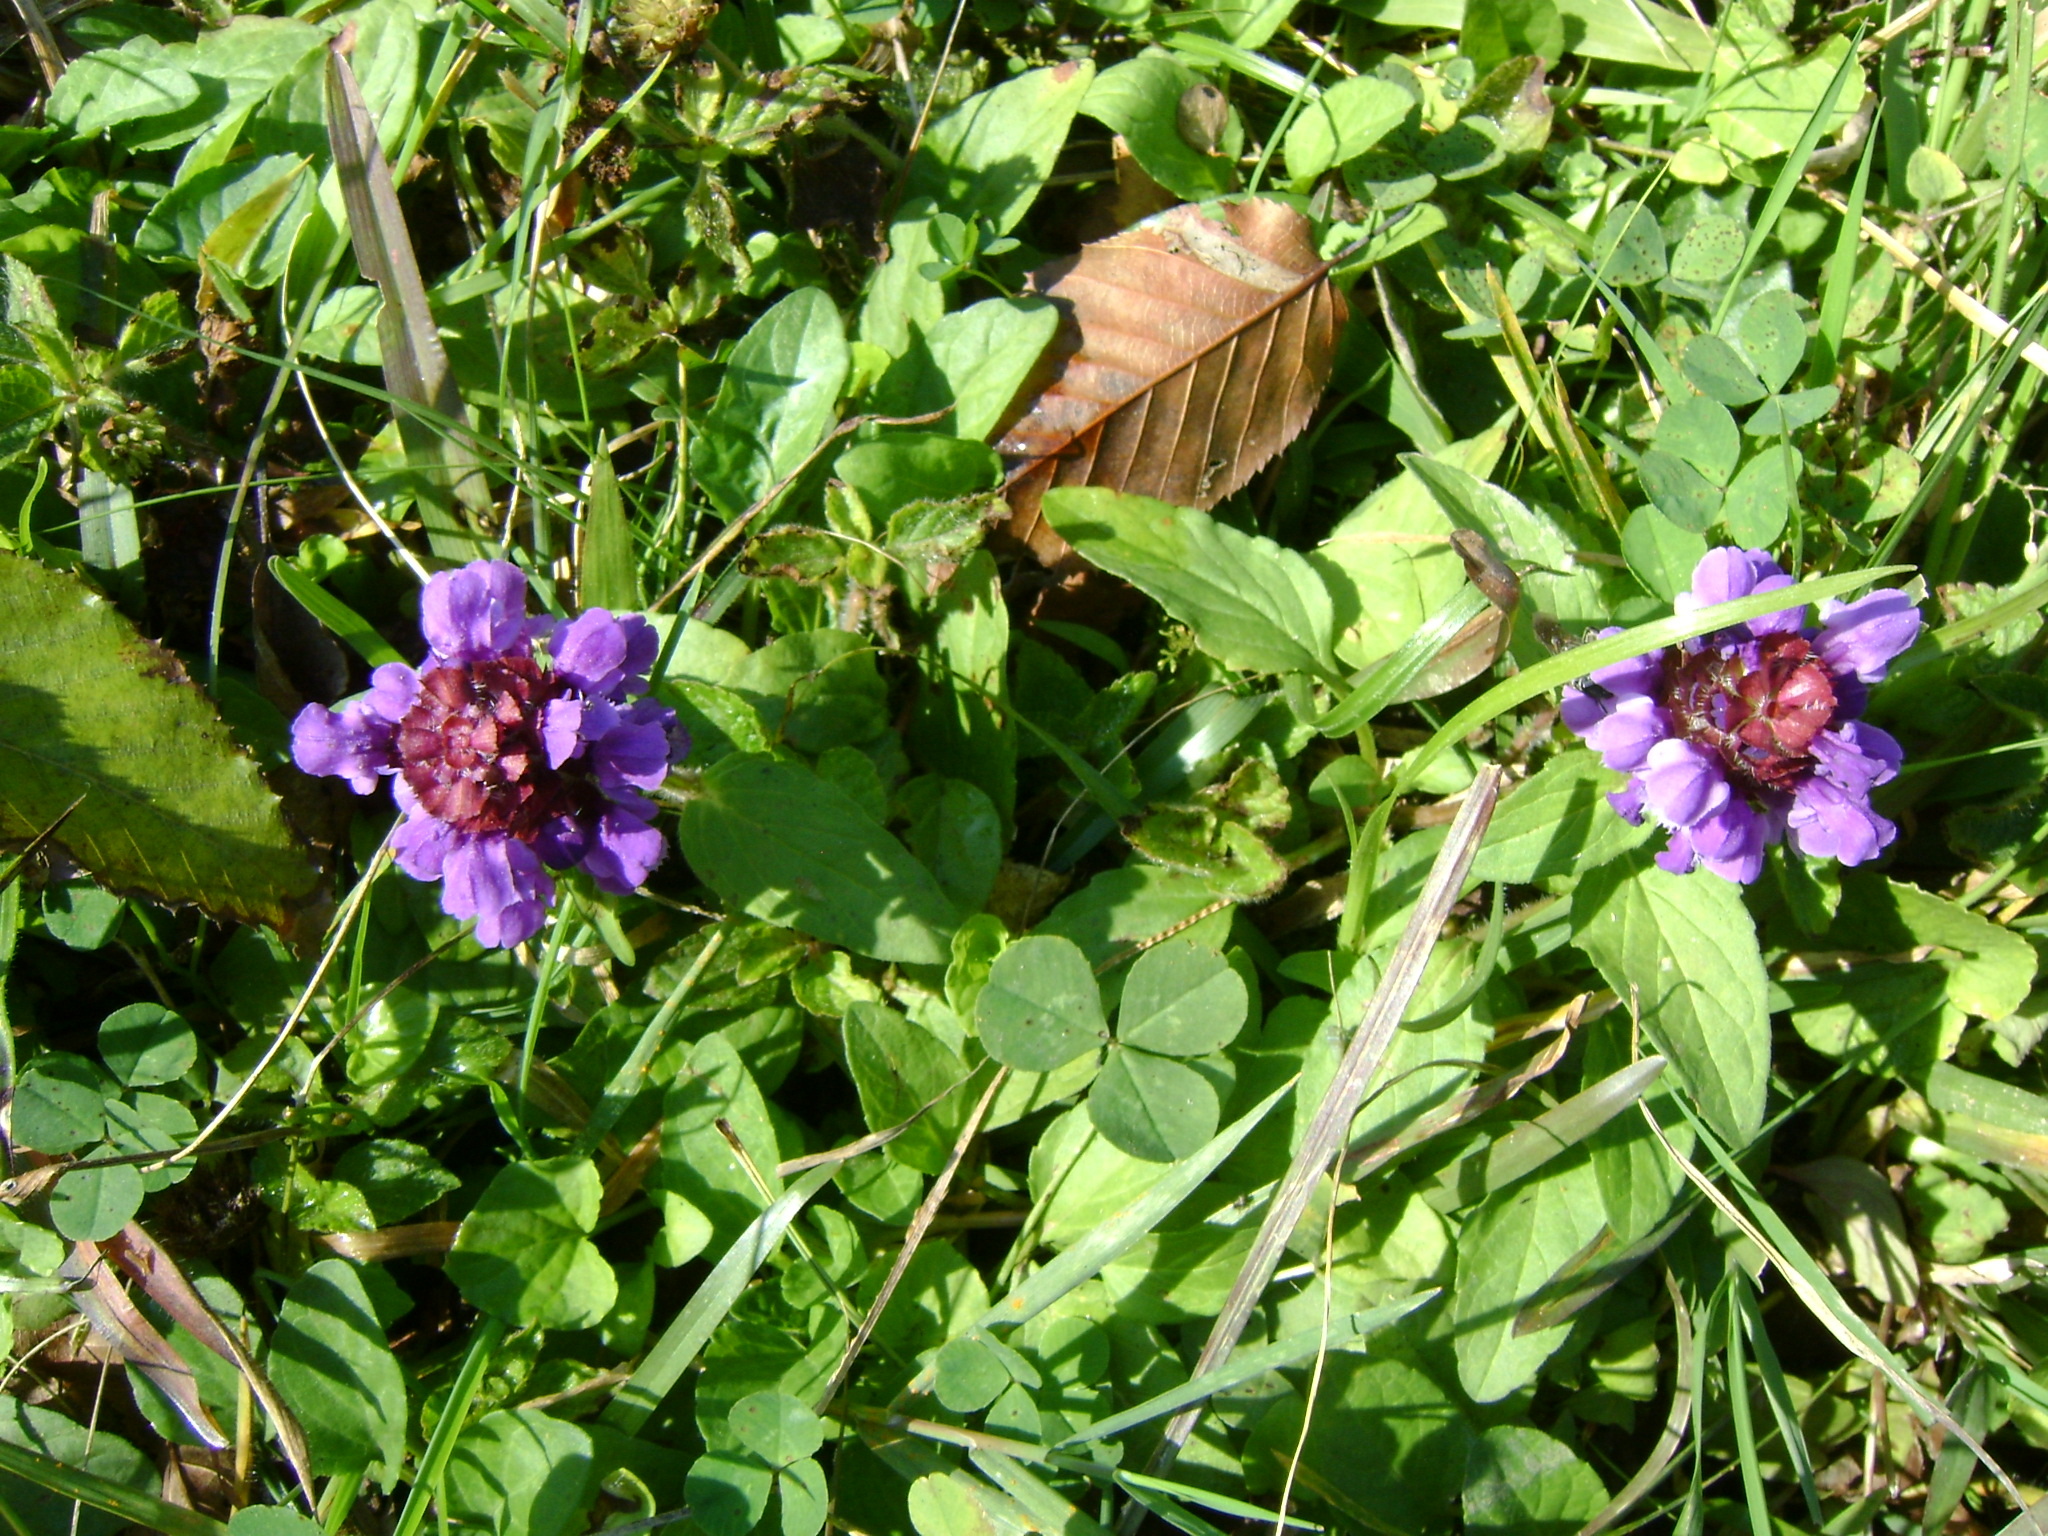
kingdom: Plantae
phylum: Tracheophyta
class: Magnoliopsida
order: Lamiales
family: Lamiaceae
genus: Prunella
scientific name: Prunella vulgaris
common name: Heal-all
